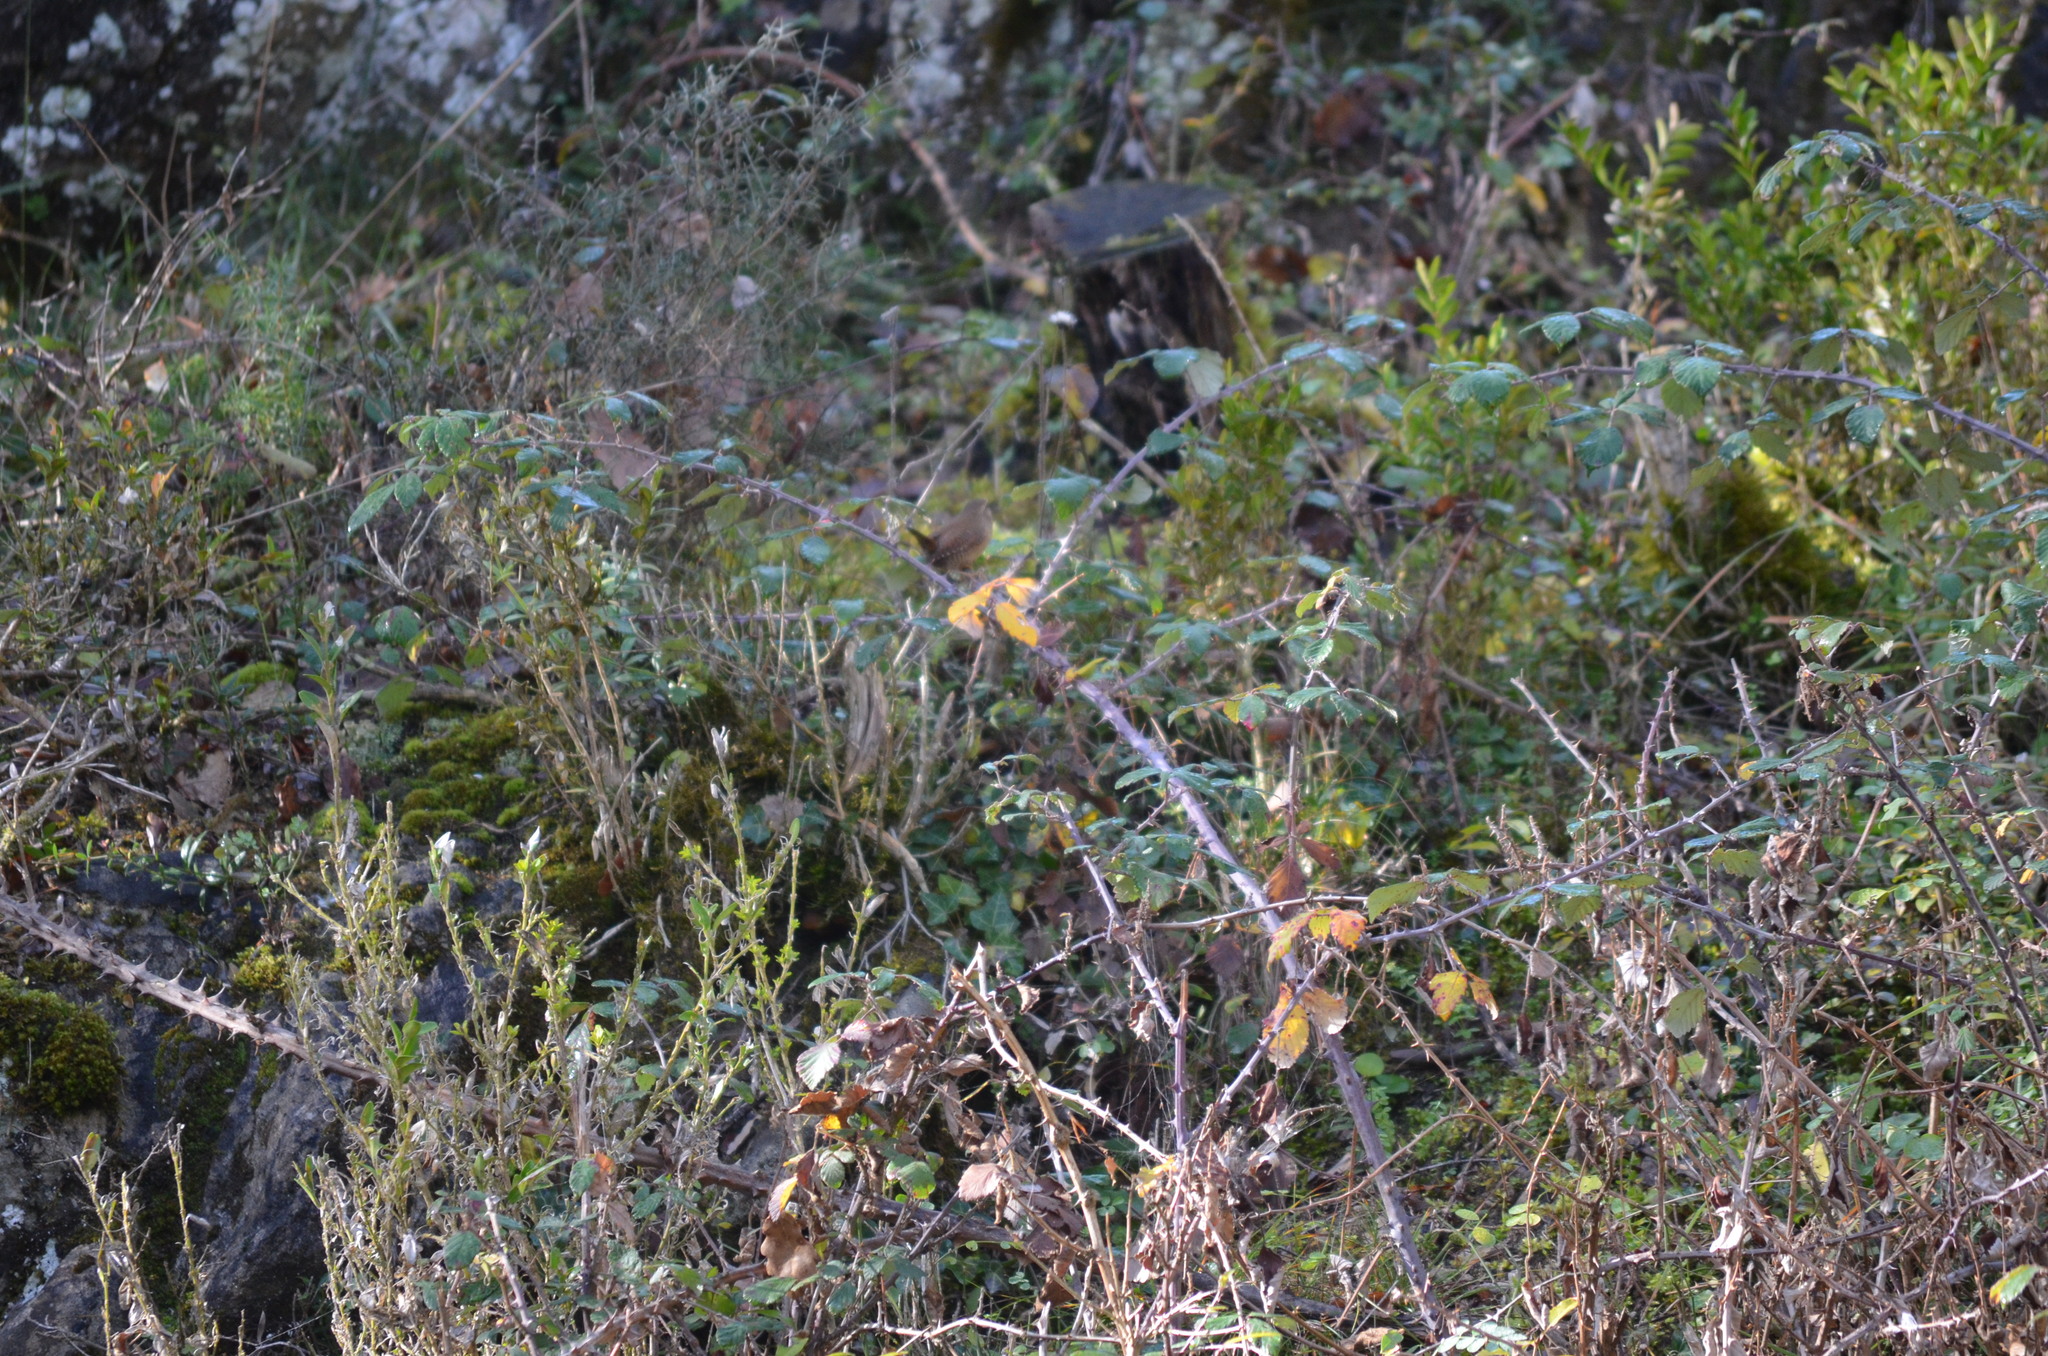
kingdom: Animalia
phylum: Chordata
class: Aves
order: Passeriformes
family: Troglodytidae
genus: Troglodytes
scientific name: Troglodytes troglodytes
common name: Eurasian wren
